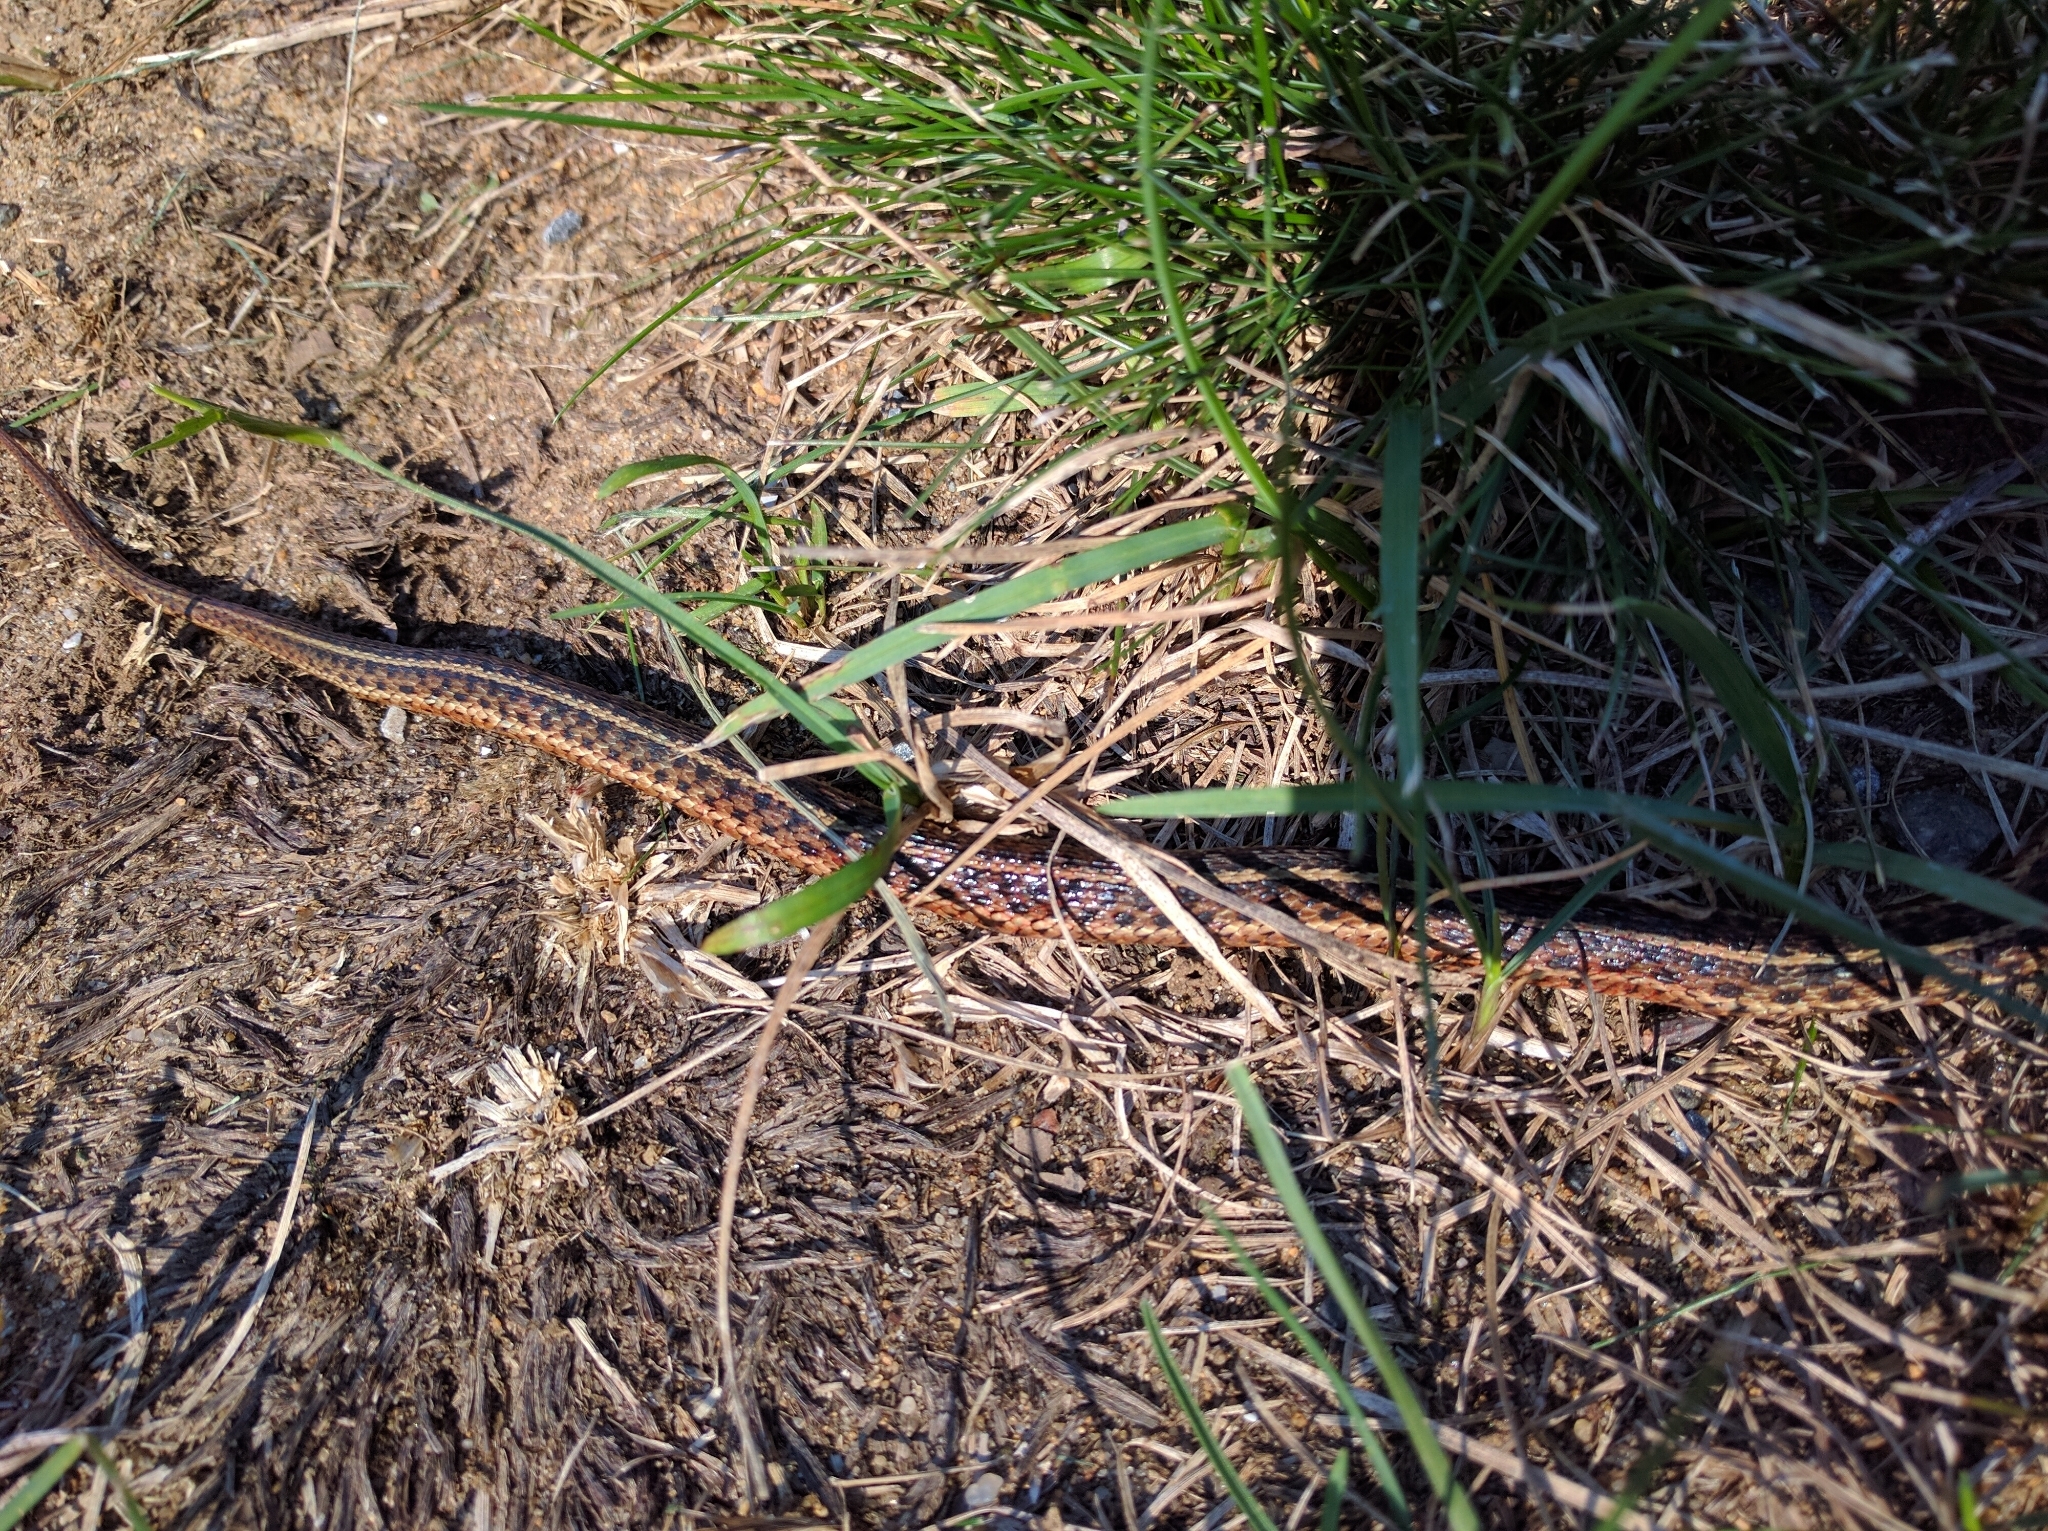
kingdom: Animalia
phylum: Chordata
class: Squamata
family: Colubridae
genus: Thamnophis
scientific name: Thamnophis sirtalis
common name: Common garter snake
